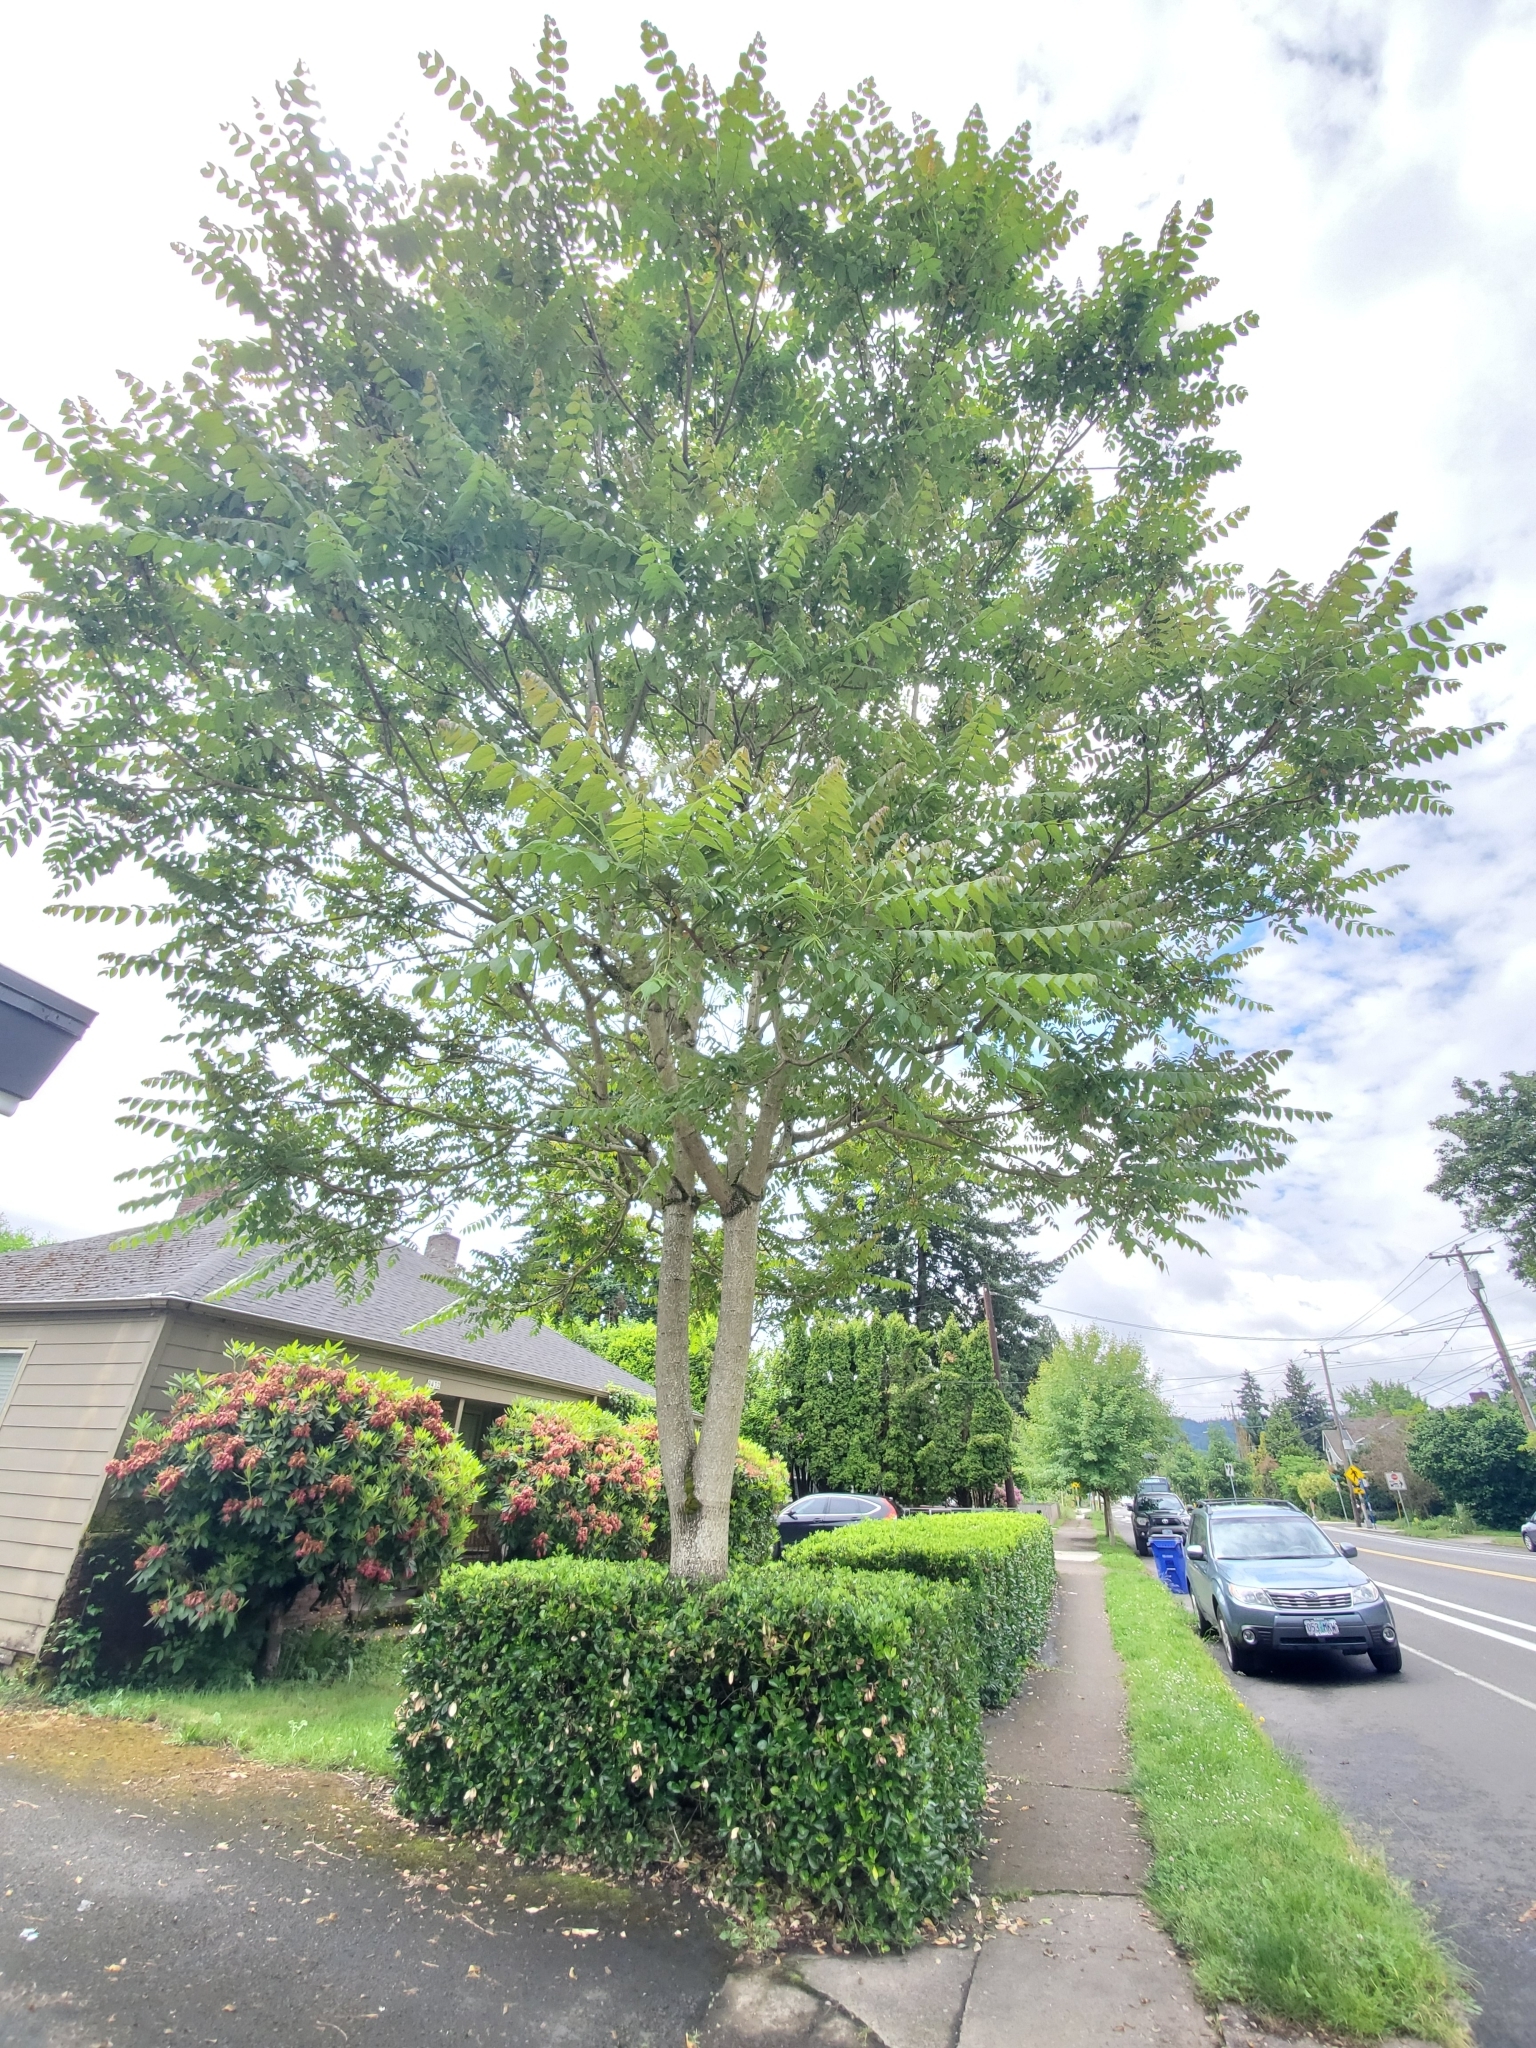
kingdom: Plantae
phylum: Tracheophyta
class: Magnoliopsida
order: Sapindales
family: Simaroubaceae
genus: Ailanthus
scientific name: Ailanthus altissima
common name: Tree-of-heaven
